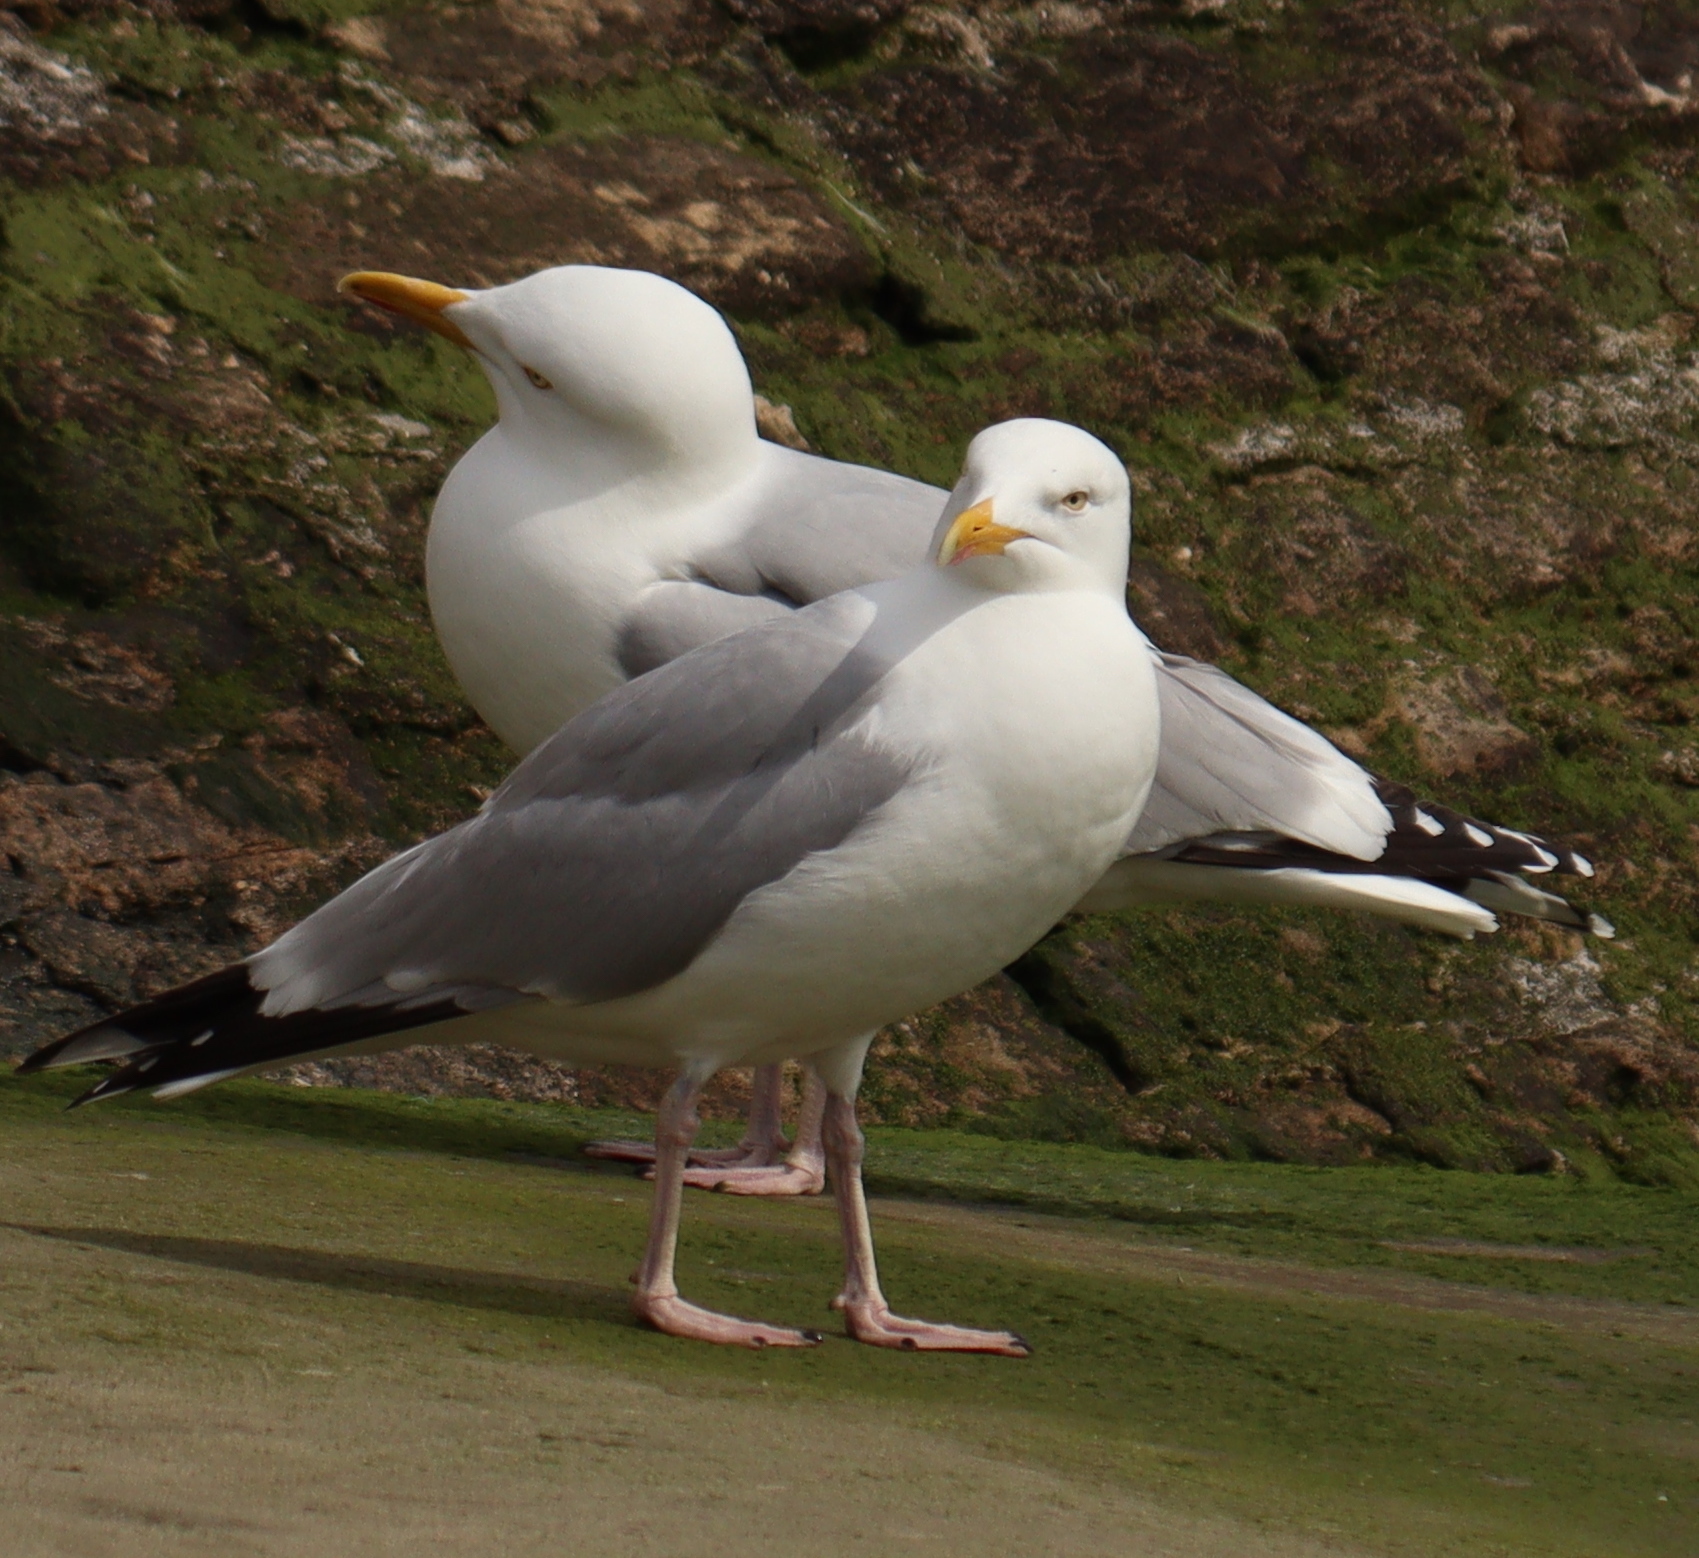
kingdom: Animalia
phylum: Chordata
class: Aves
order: Charadriiformes
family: Laridae
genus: Larus
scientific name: Larus argentatus
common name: Herring gull
